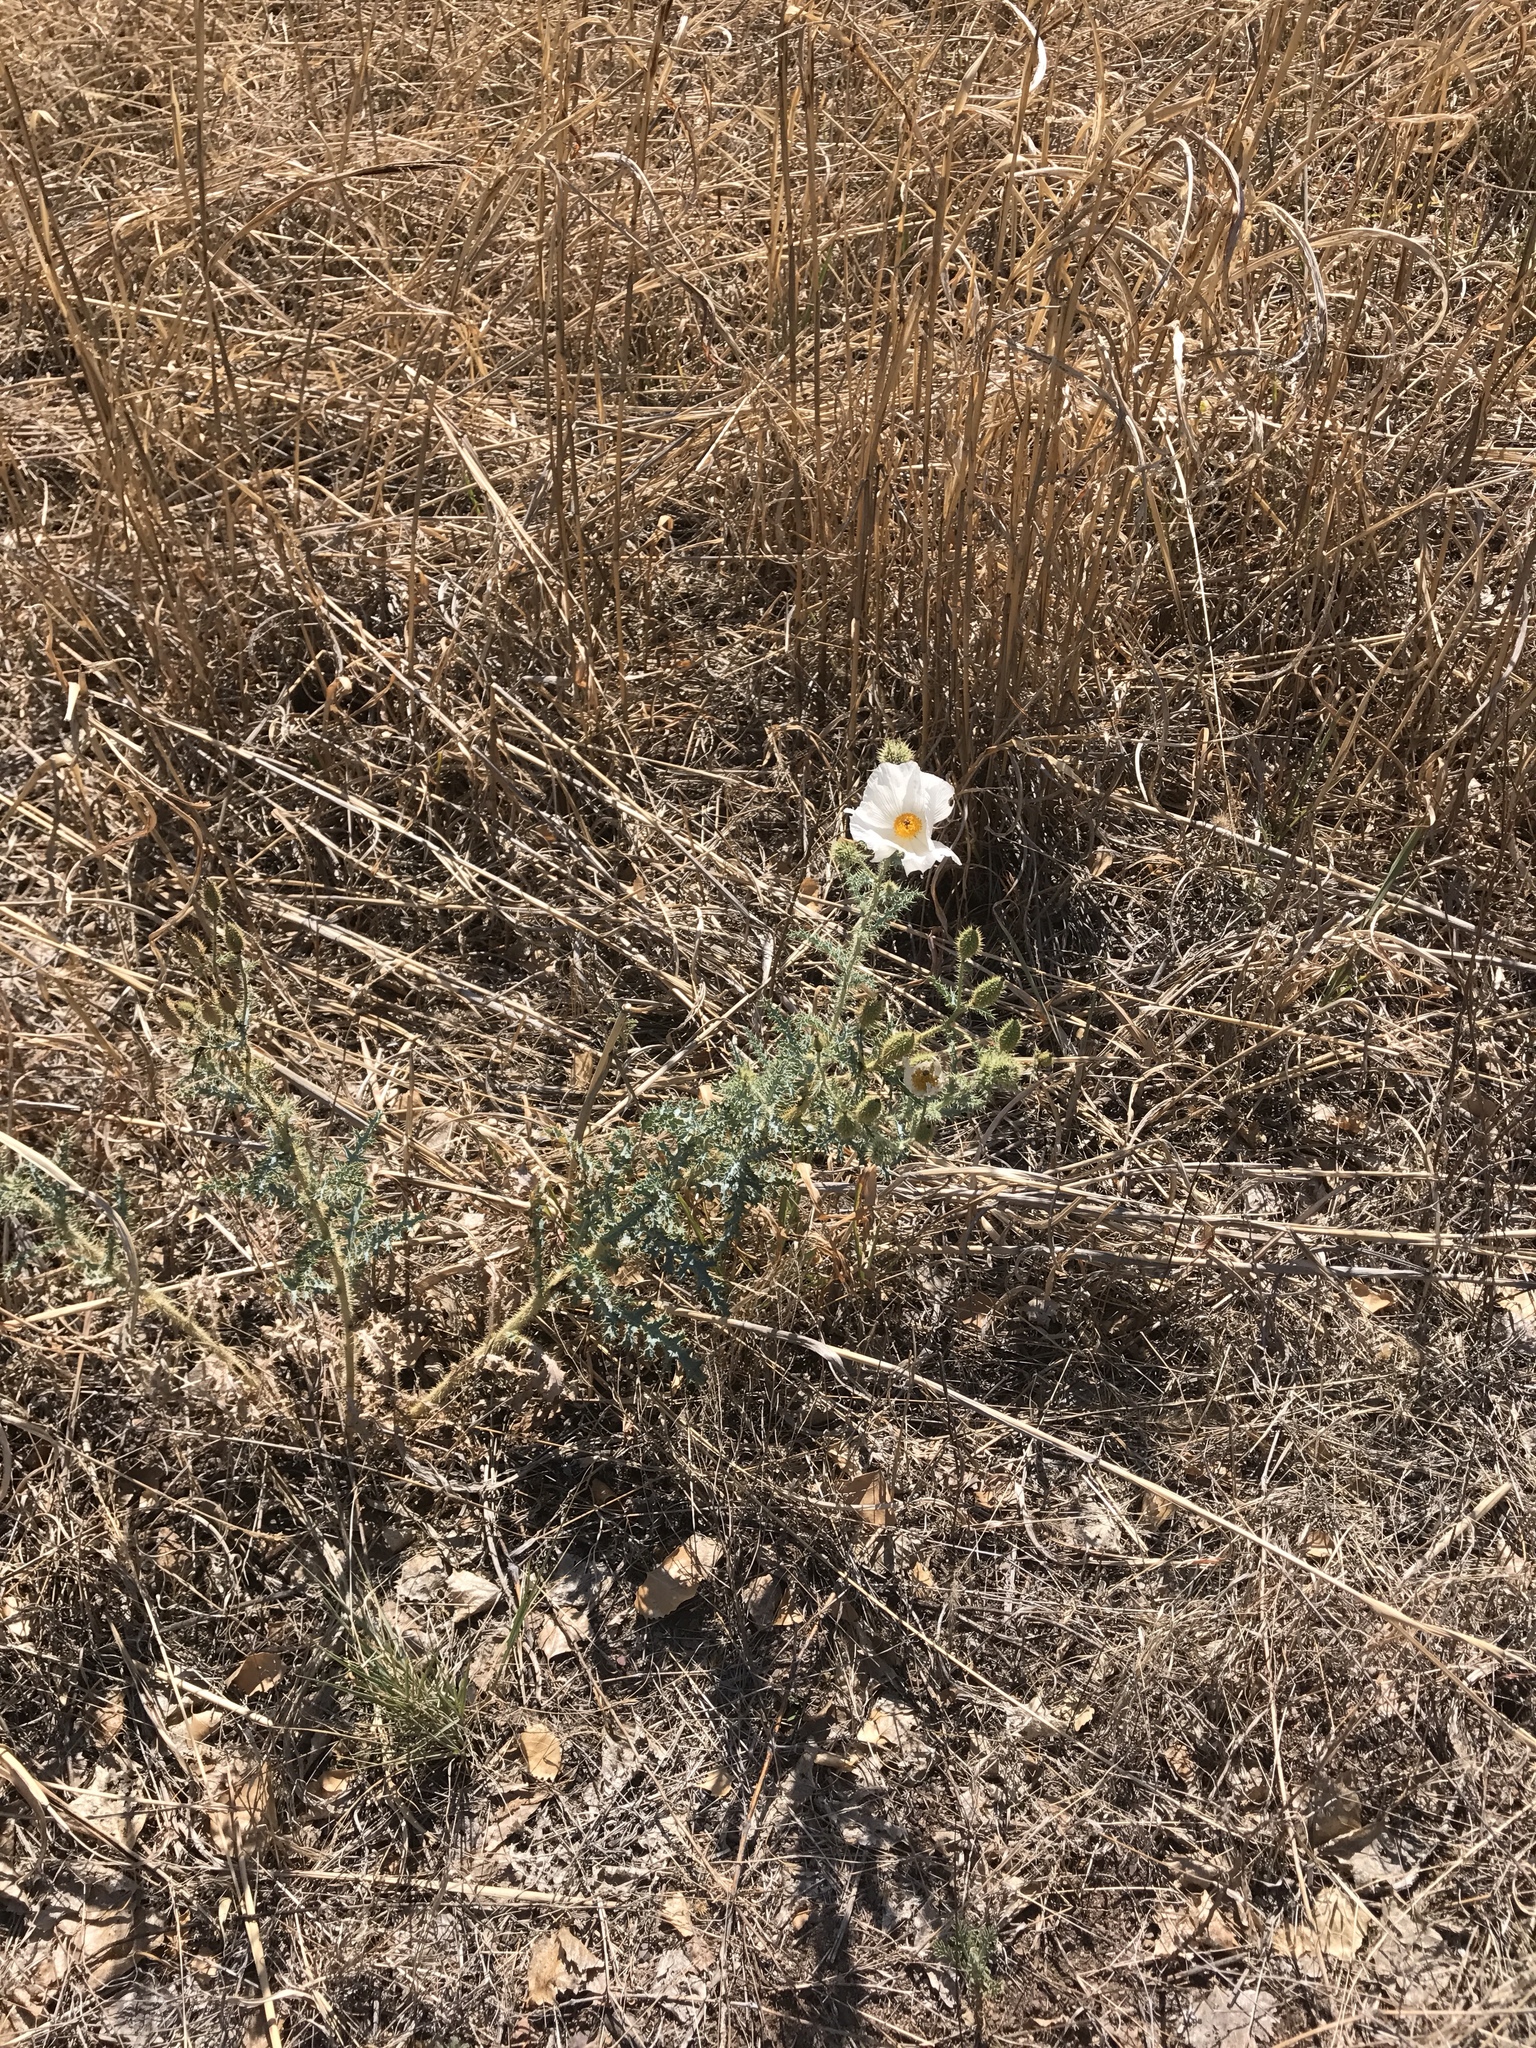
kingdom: Plantae
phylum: Tracheophyta
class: Magnoliopsida
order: Ranunculales
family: Papaveraceae
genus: Argemone
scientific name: Argemone pleiacantha
